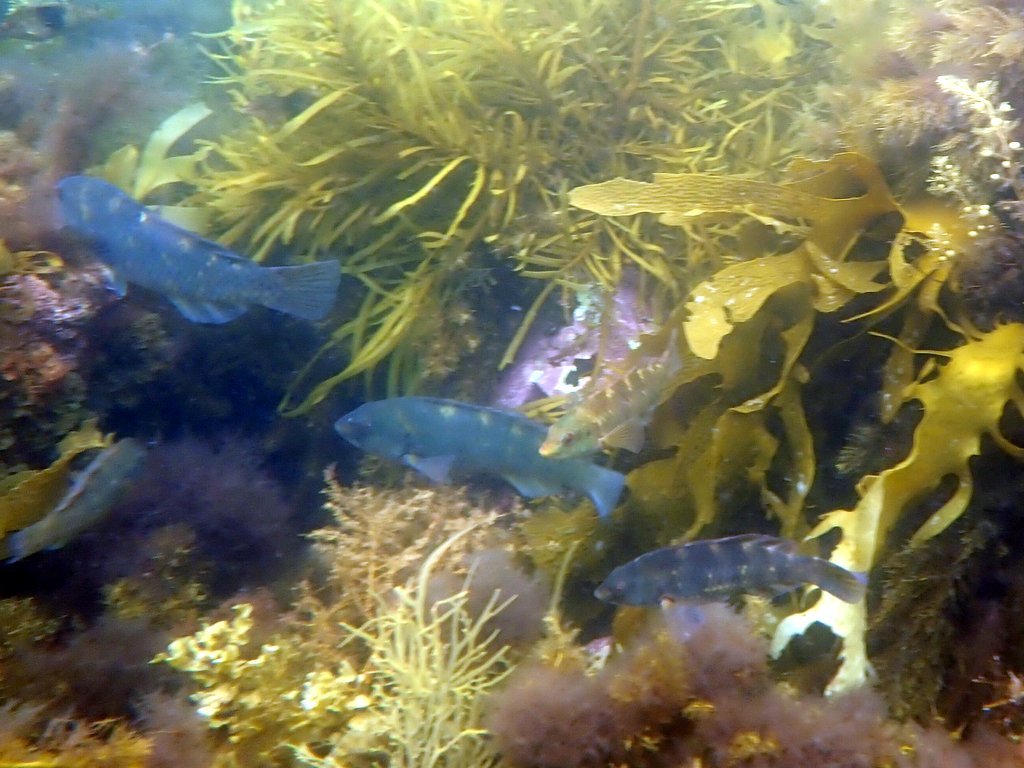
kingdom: Animalia
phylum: Chordata
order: Perciformes
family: Labridae
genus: Notolabrus
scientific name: Notolabrus fucicola
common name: Banded parrotfish
